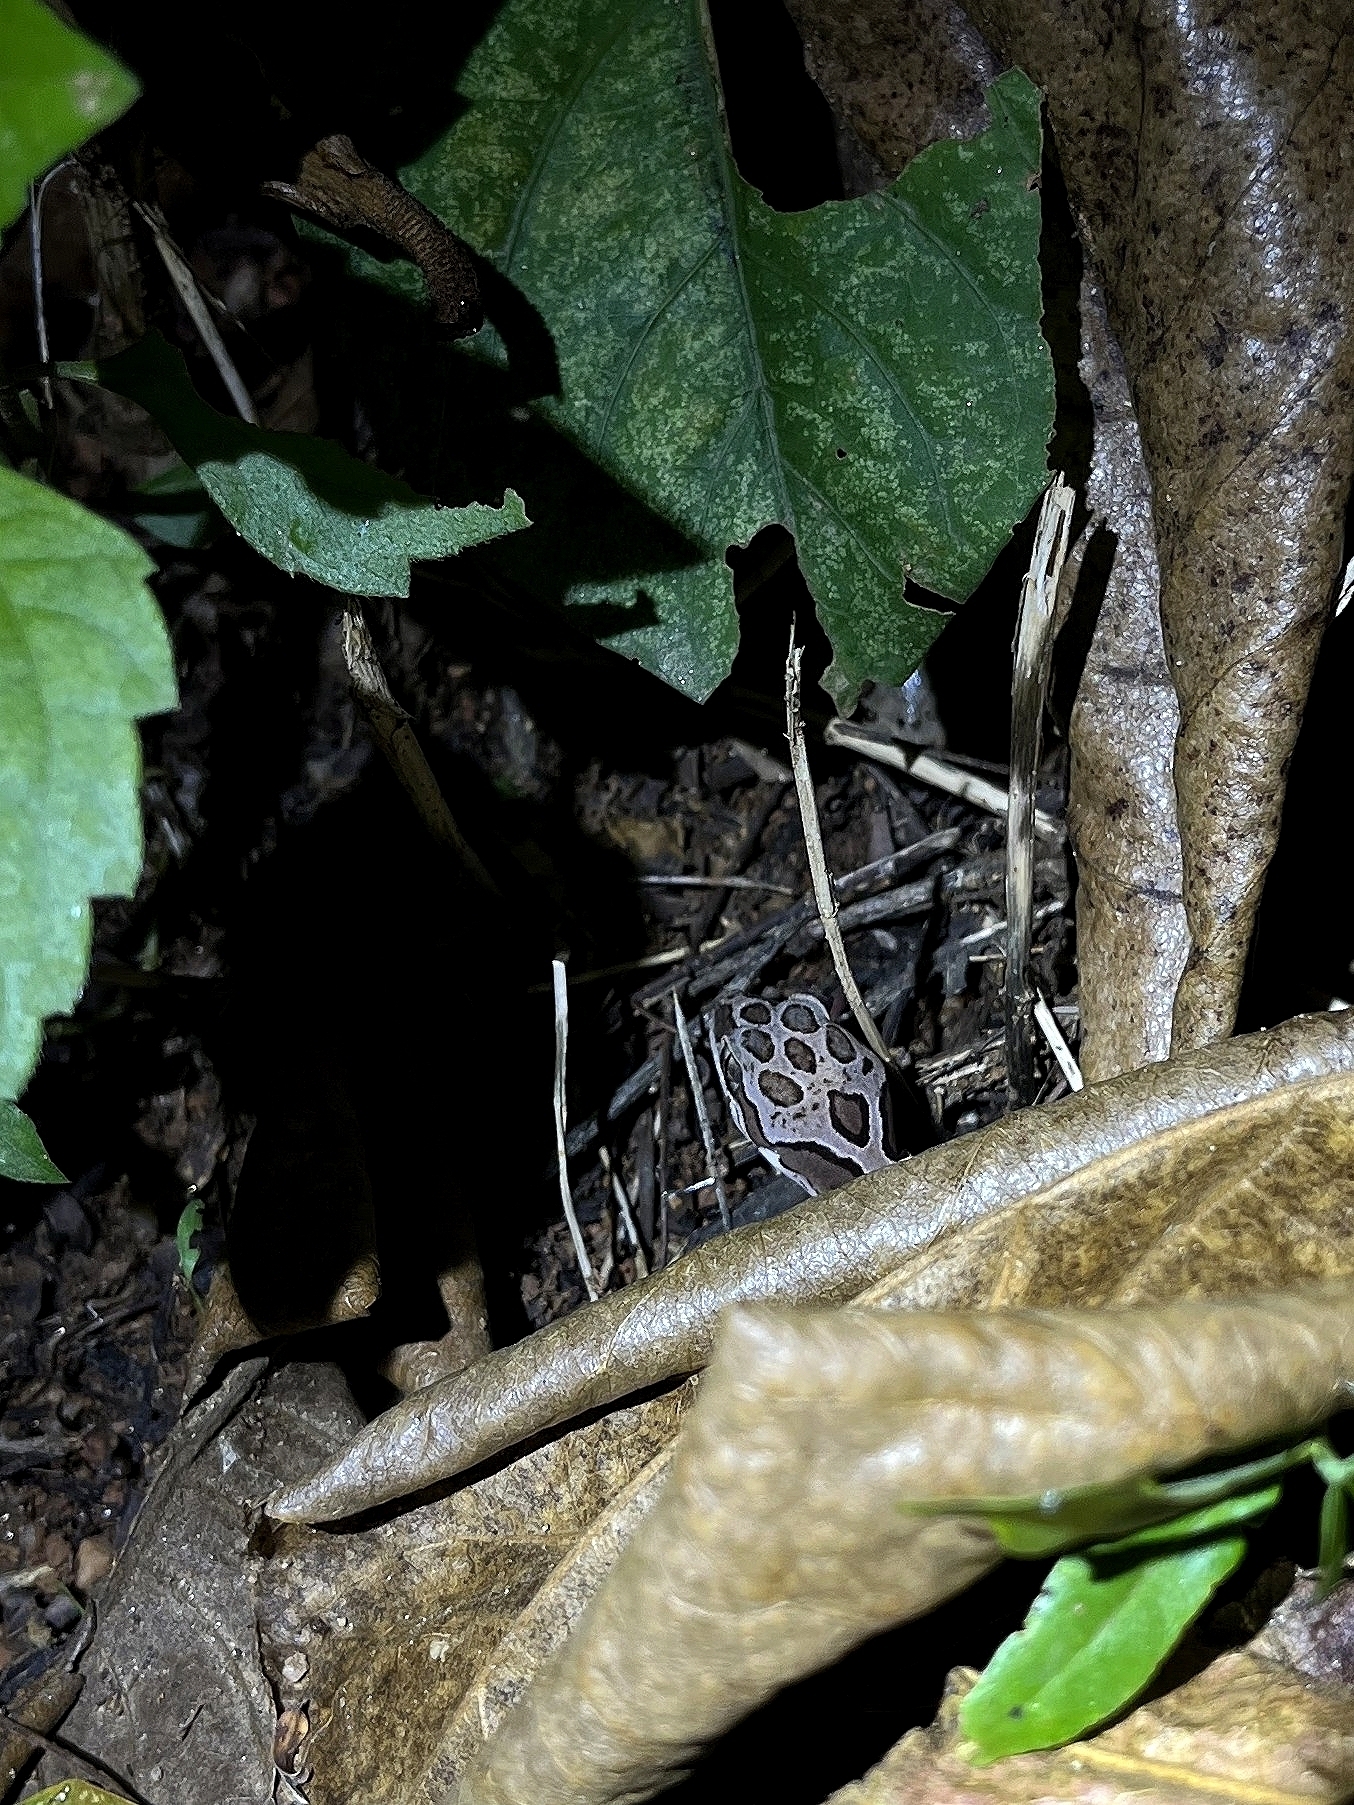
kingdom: Animalia
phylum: Chordata
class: Squamata
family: Gekkonidae
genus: Cyrtodactylus
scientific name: Cyrtodactylus collegalensis
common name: Forest spotted gecko
